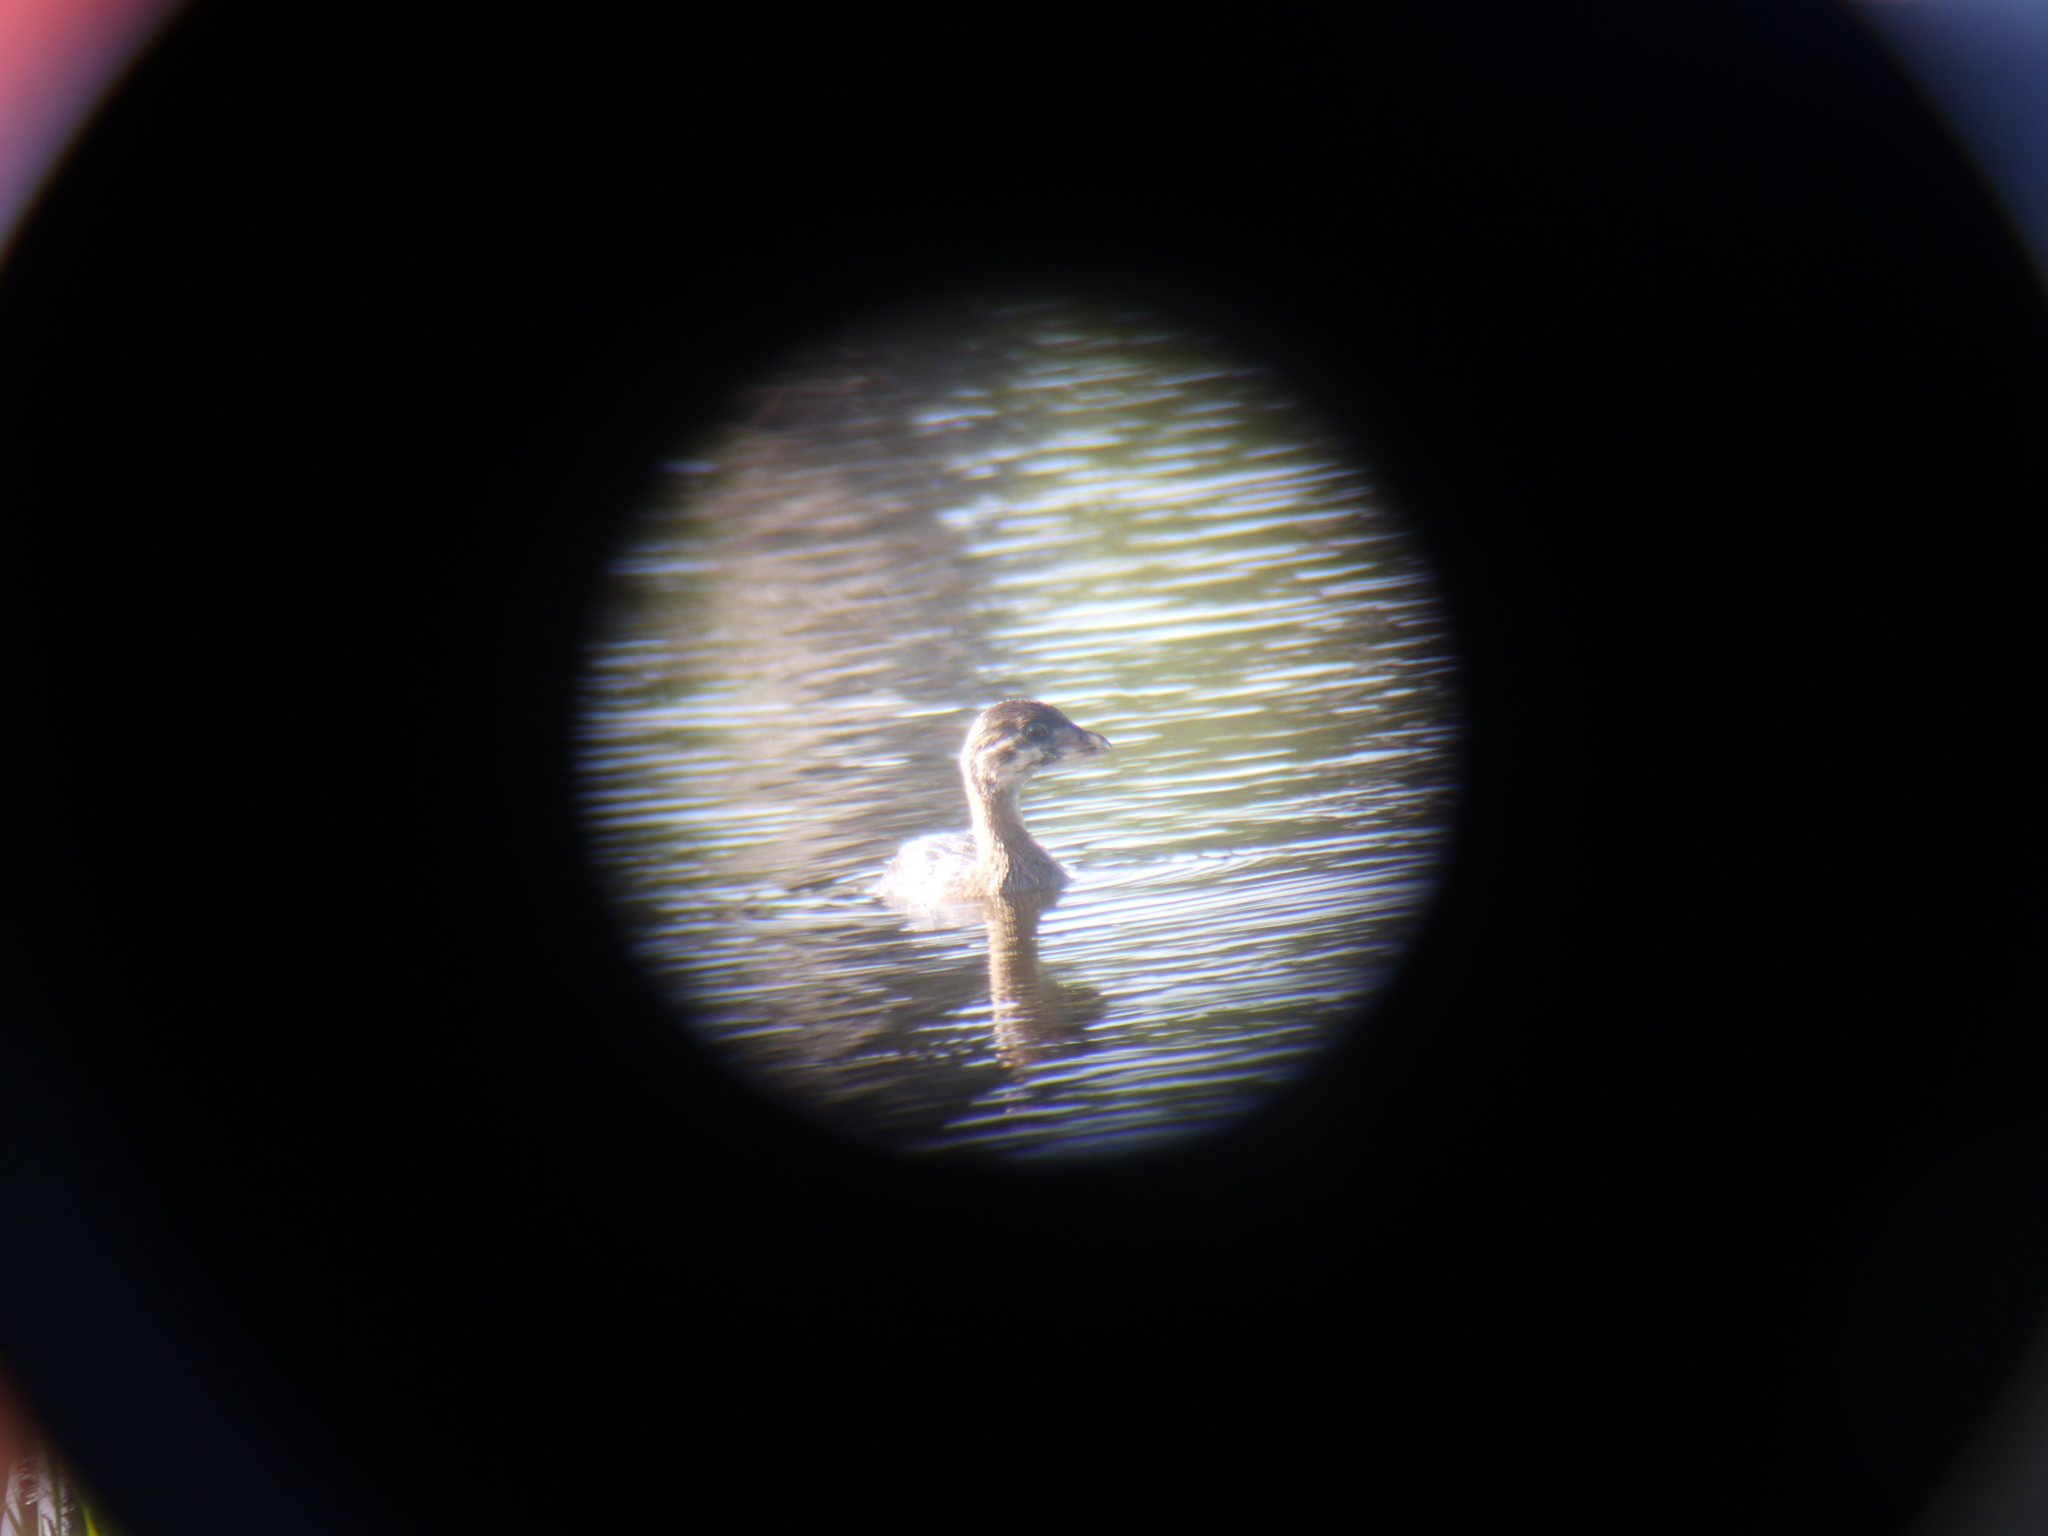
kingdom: Animalia
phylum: Chordata
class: Aves
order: Podicipediformes
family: Podicipedidae
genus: Podilymbus
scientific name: Podilymbus podiceps
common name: Pied-billed grebe
